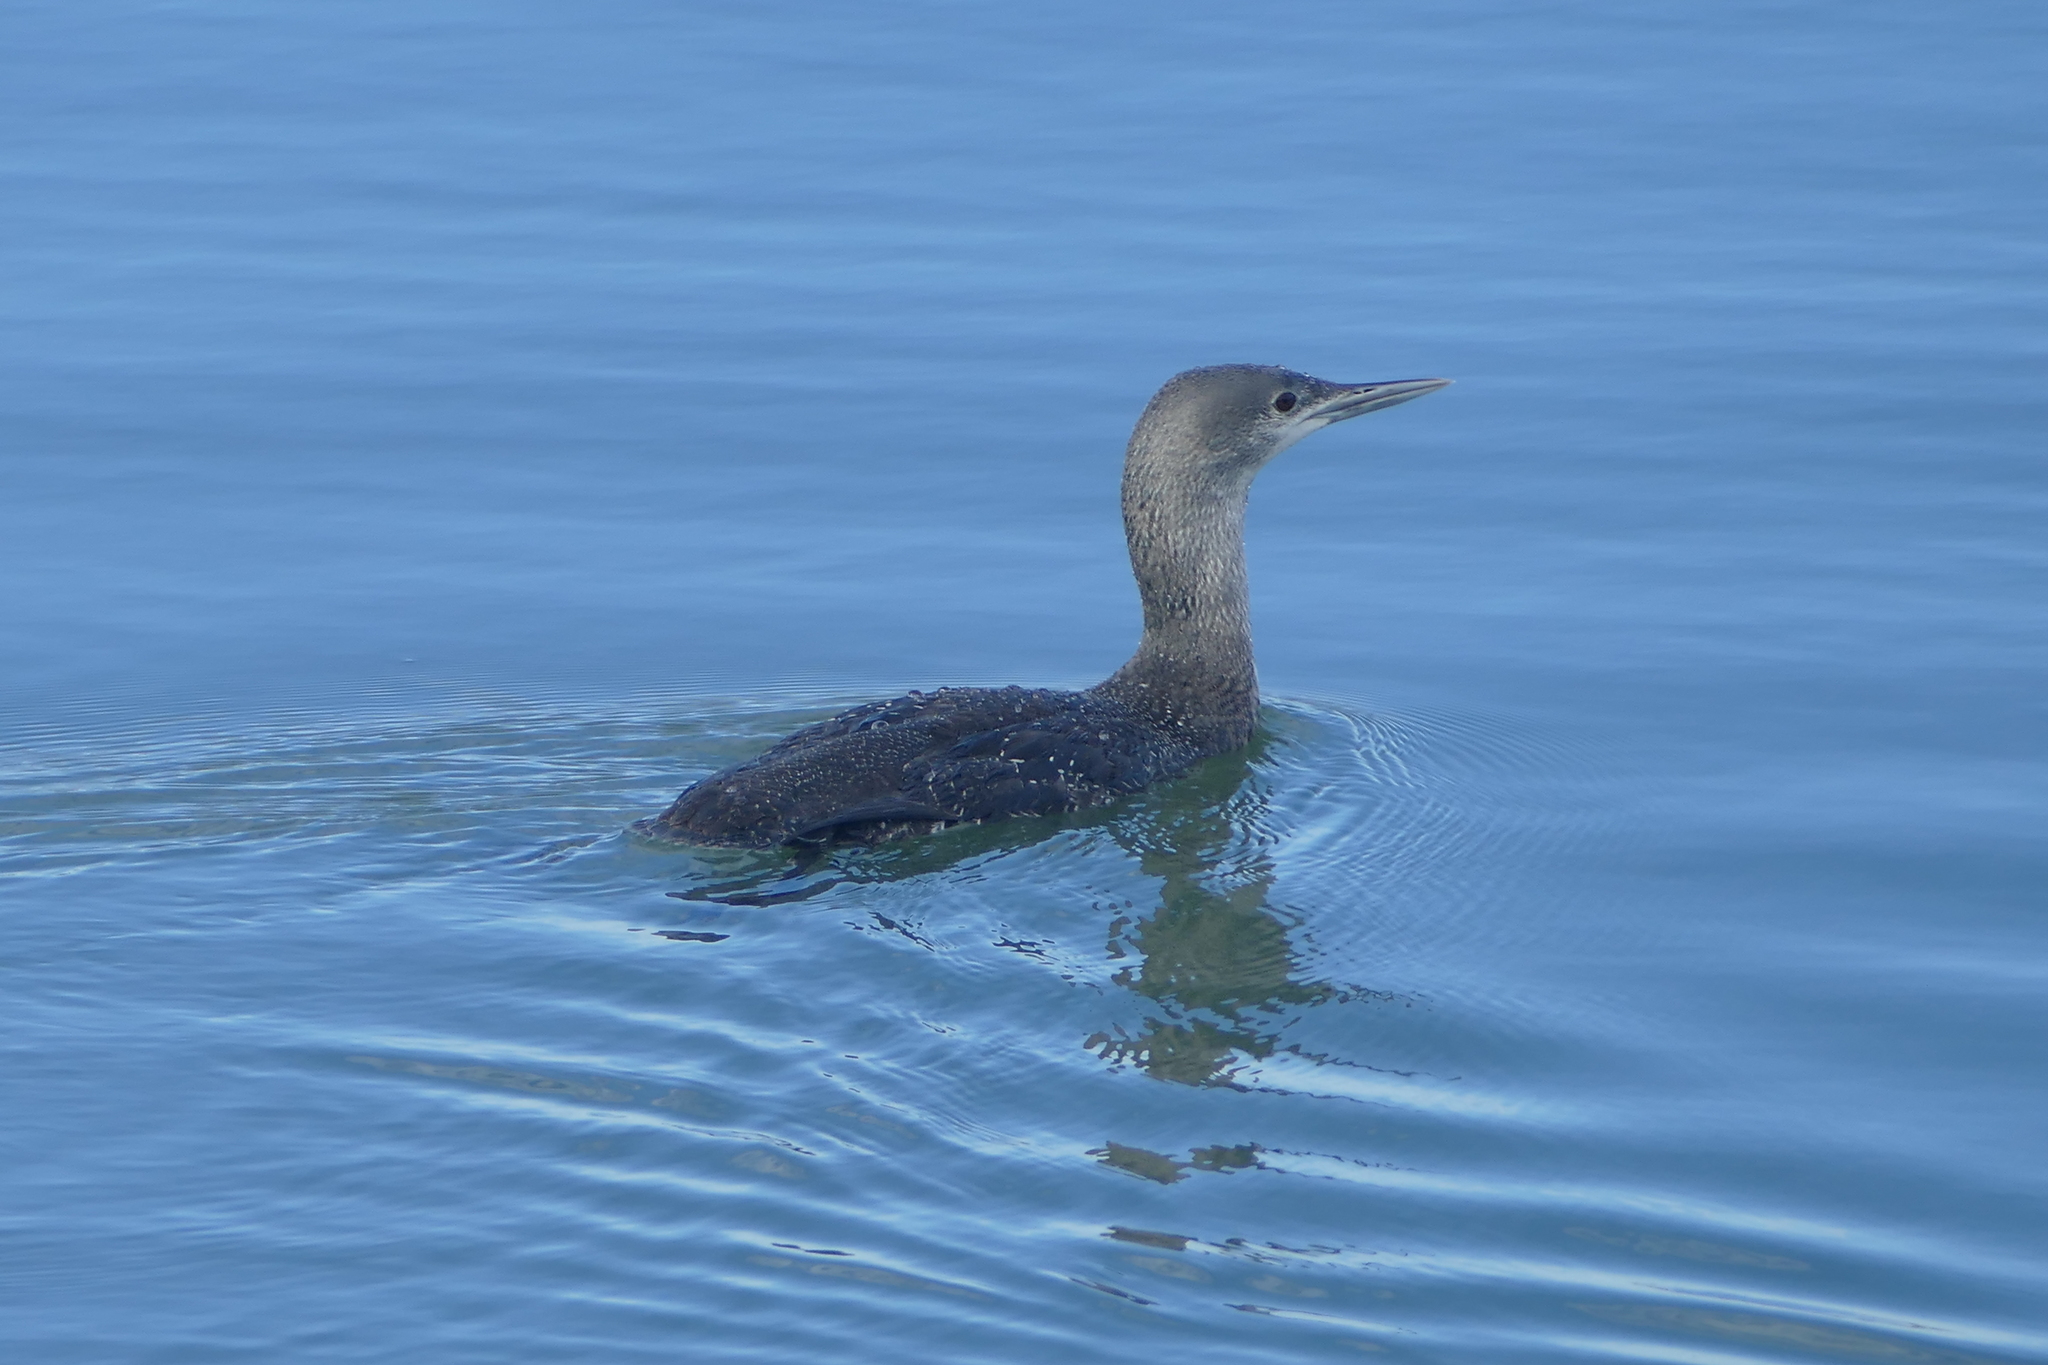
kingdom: Animalia
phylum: Chordata
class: Aves
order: Gaviiformes
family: Gaviidae
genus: Gavia
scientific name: Gavia stellata
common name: Red-throated loon
